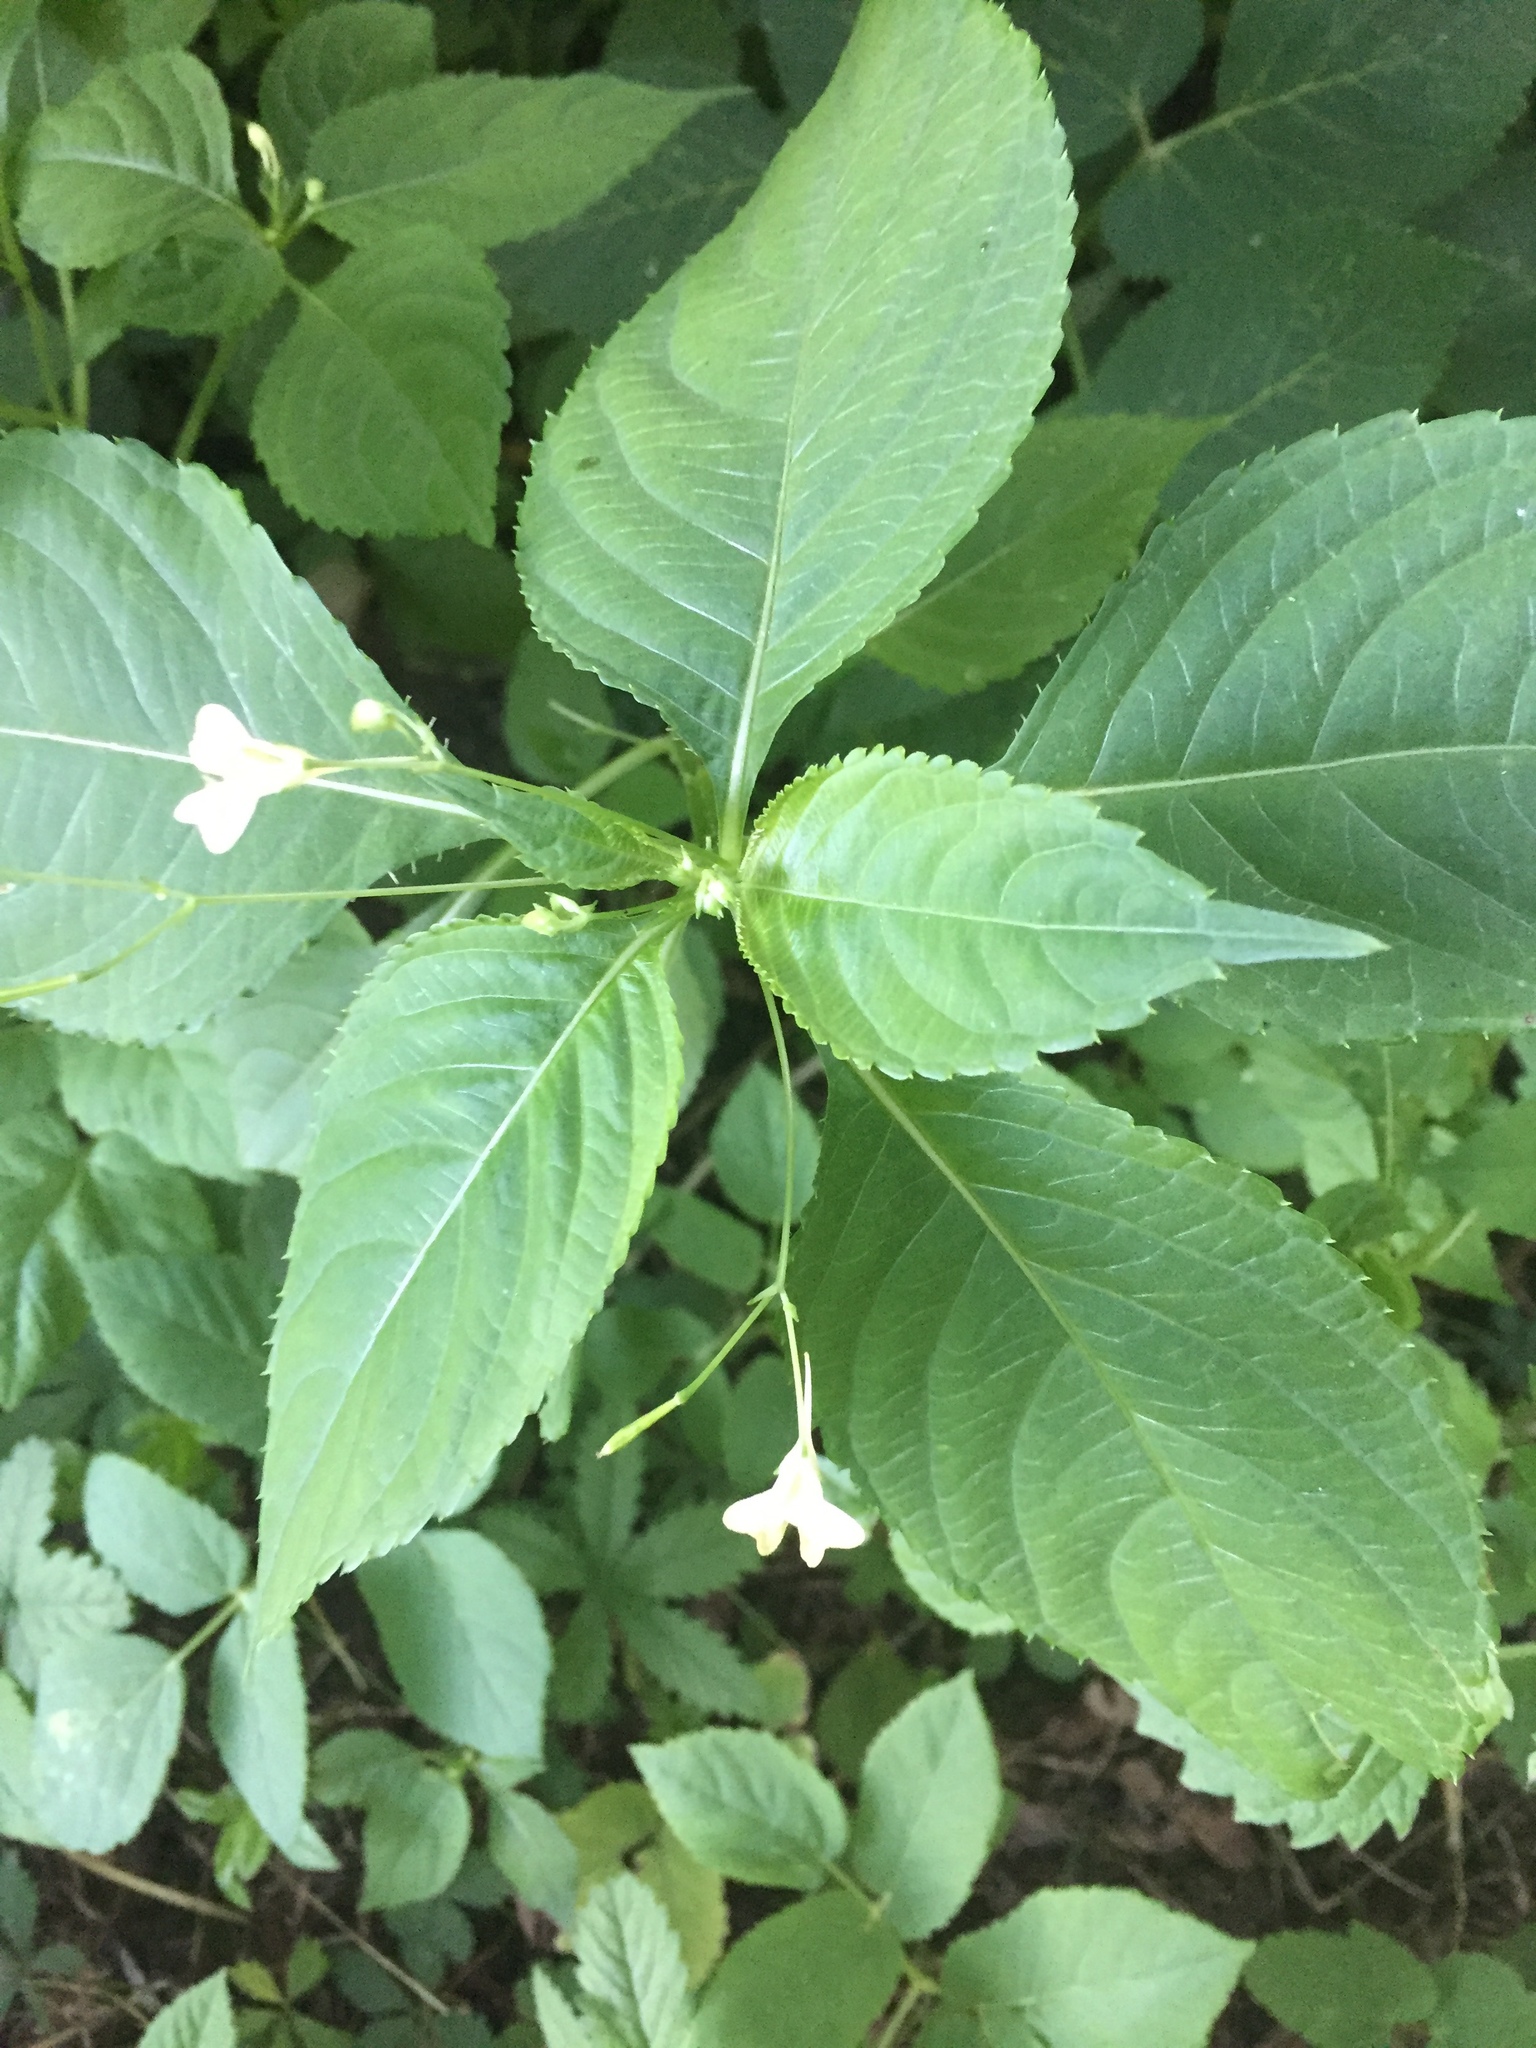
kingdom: Plantae
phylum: Tracheophyta
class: Magnoliopsida
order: Ericales
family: Balsaminaceae
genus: Impatiens
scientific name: Impatiens parviflora
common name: Small balsam
